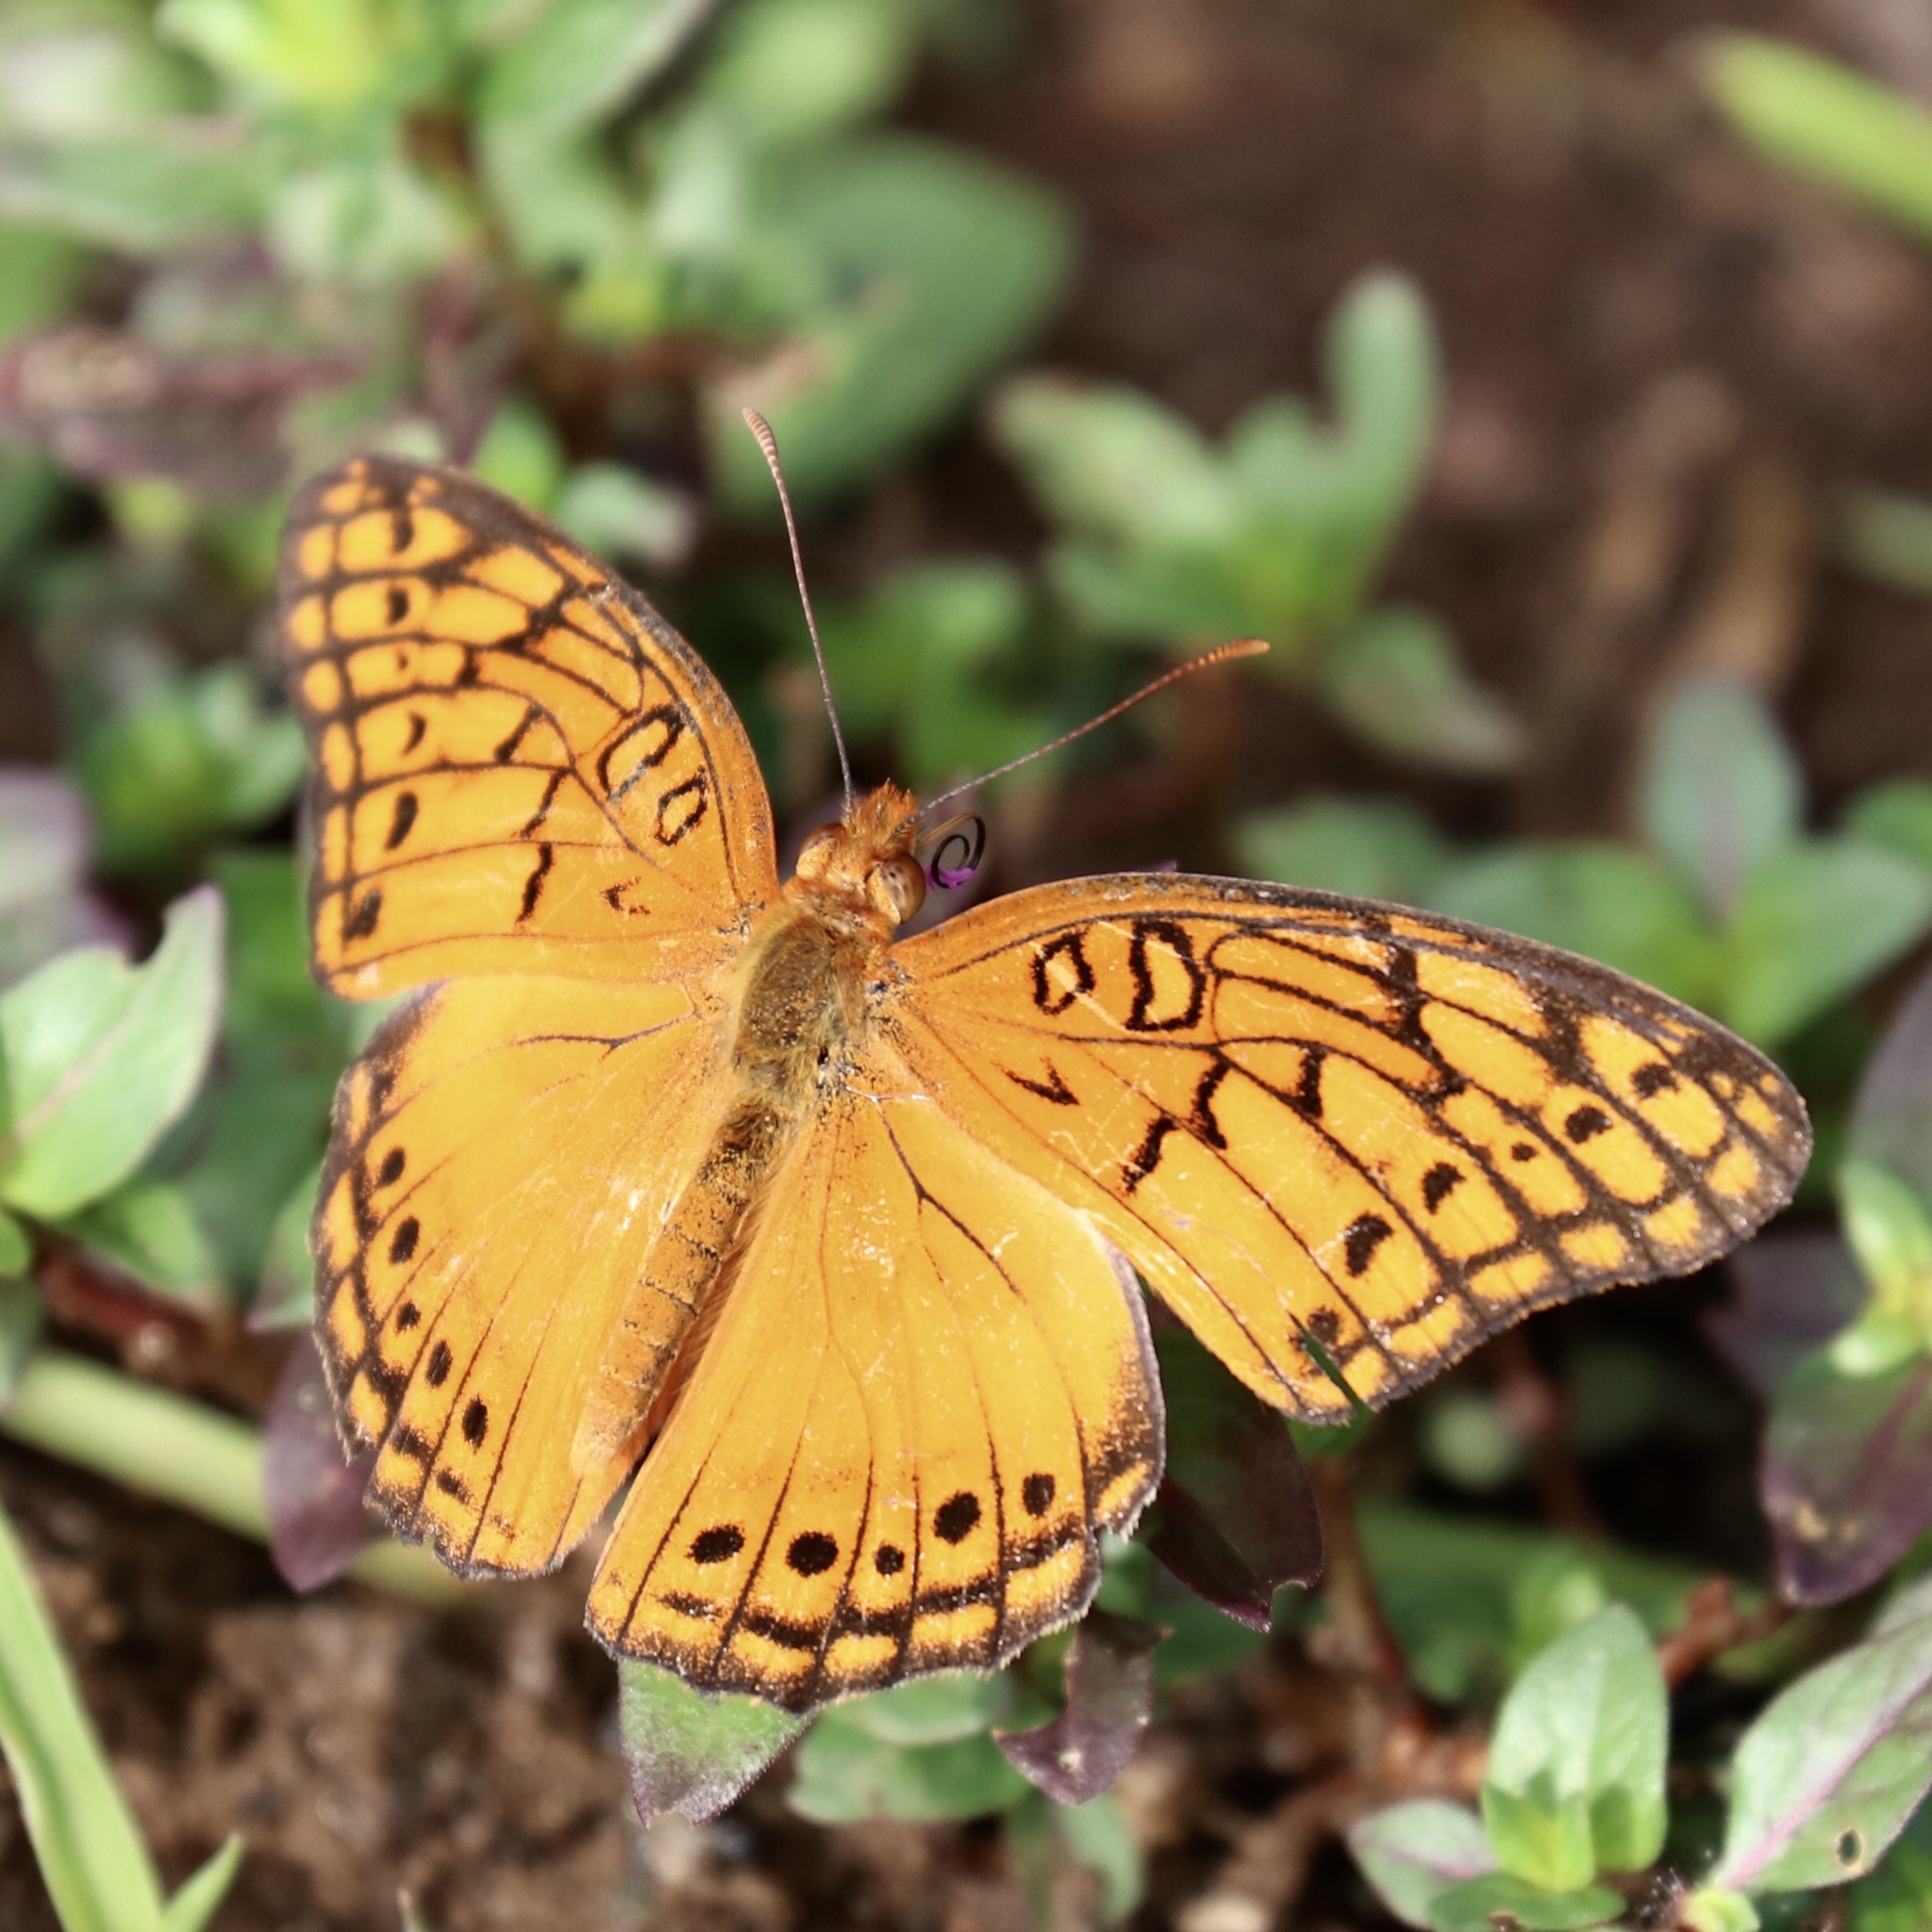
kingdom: Animalia
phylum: Arthropoda
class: Insecta
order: Lepidoptera
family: Nymphalidae
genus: Euptoieta
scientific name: Euptoieta hegesia
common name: Mexican fritillary
